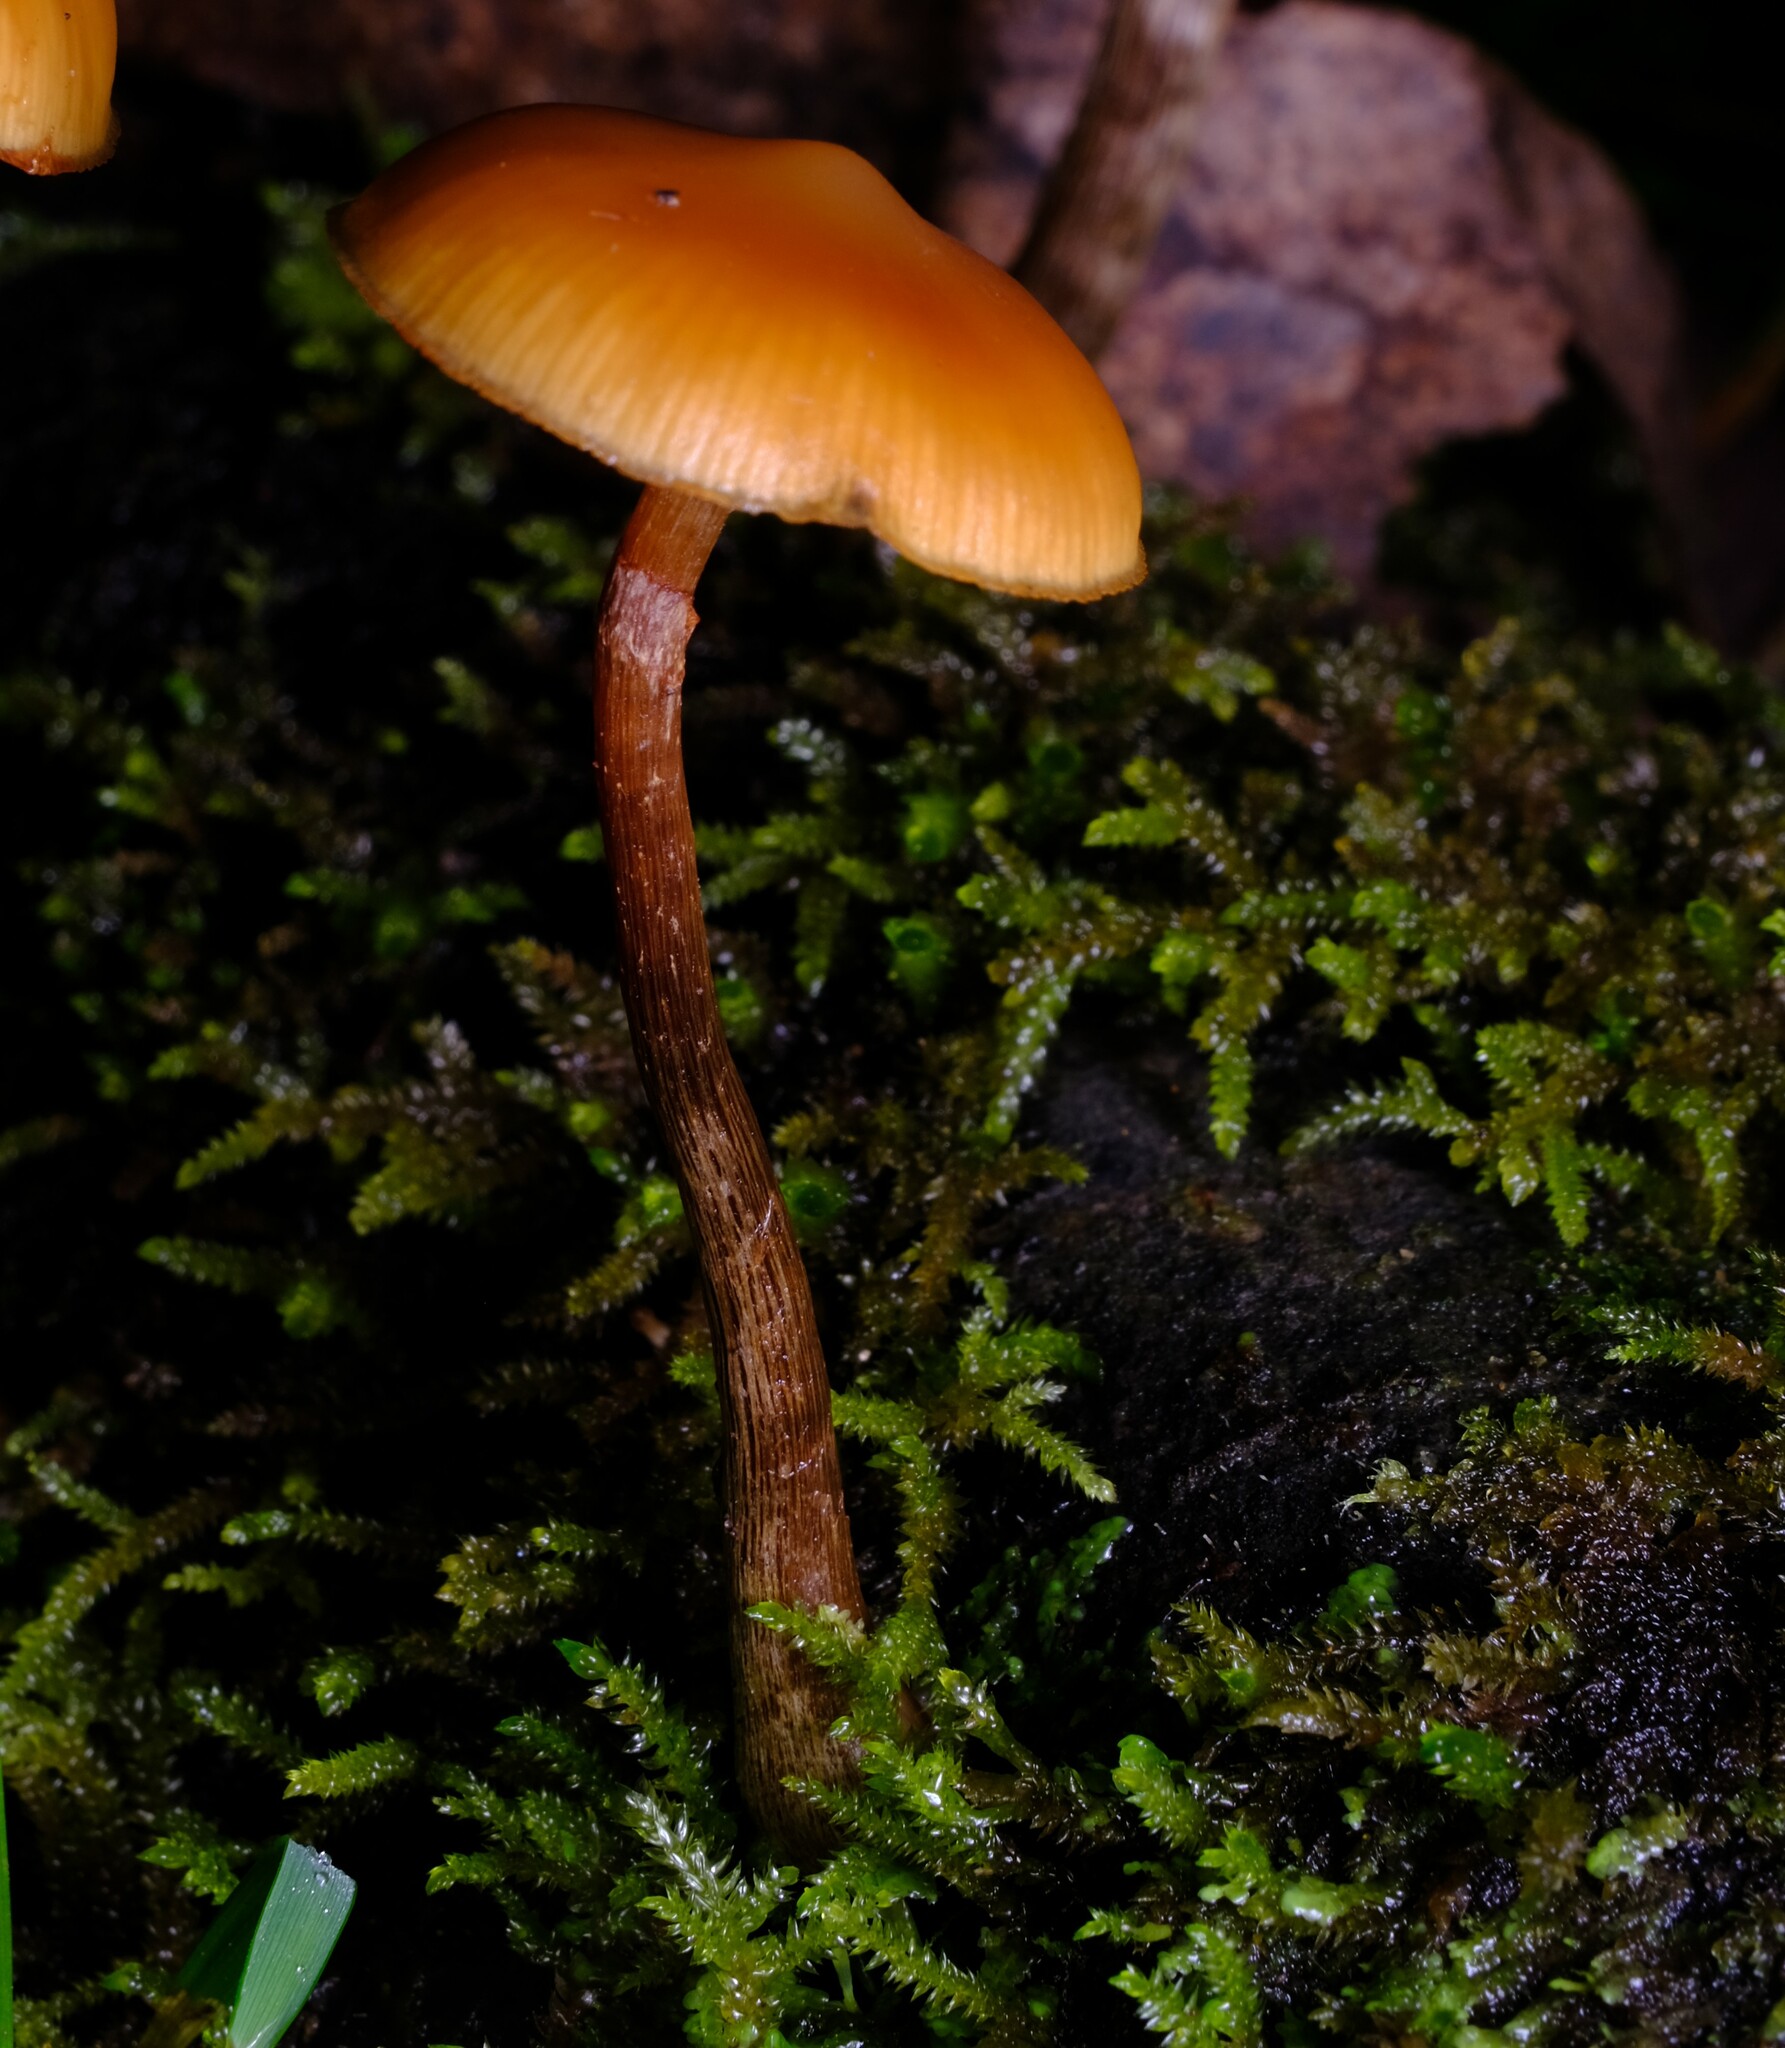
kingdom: Fungi
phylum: Basidiomycota
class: Agaricomycetes
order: Agaricales
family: Hymenogastraceae
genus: Galerina
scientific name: Galerina patagonica
